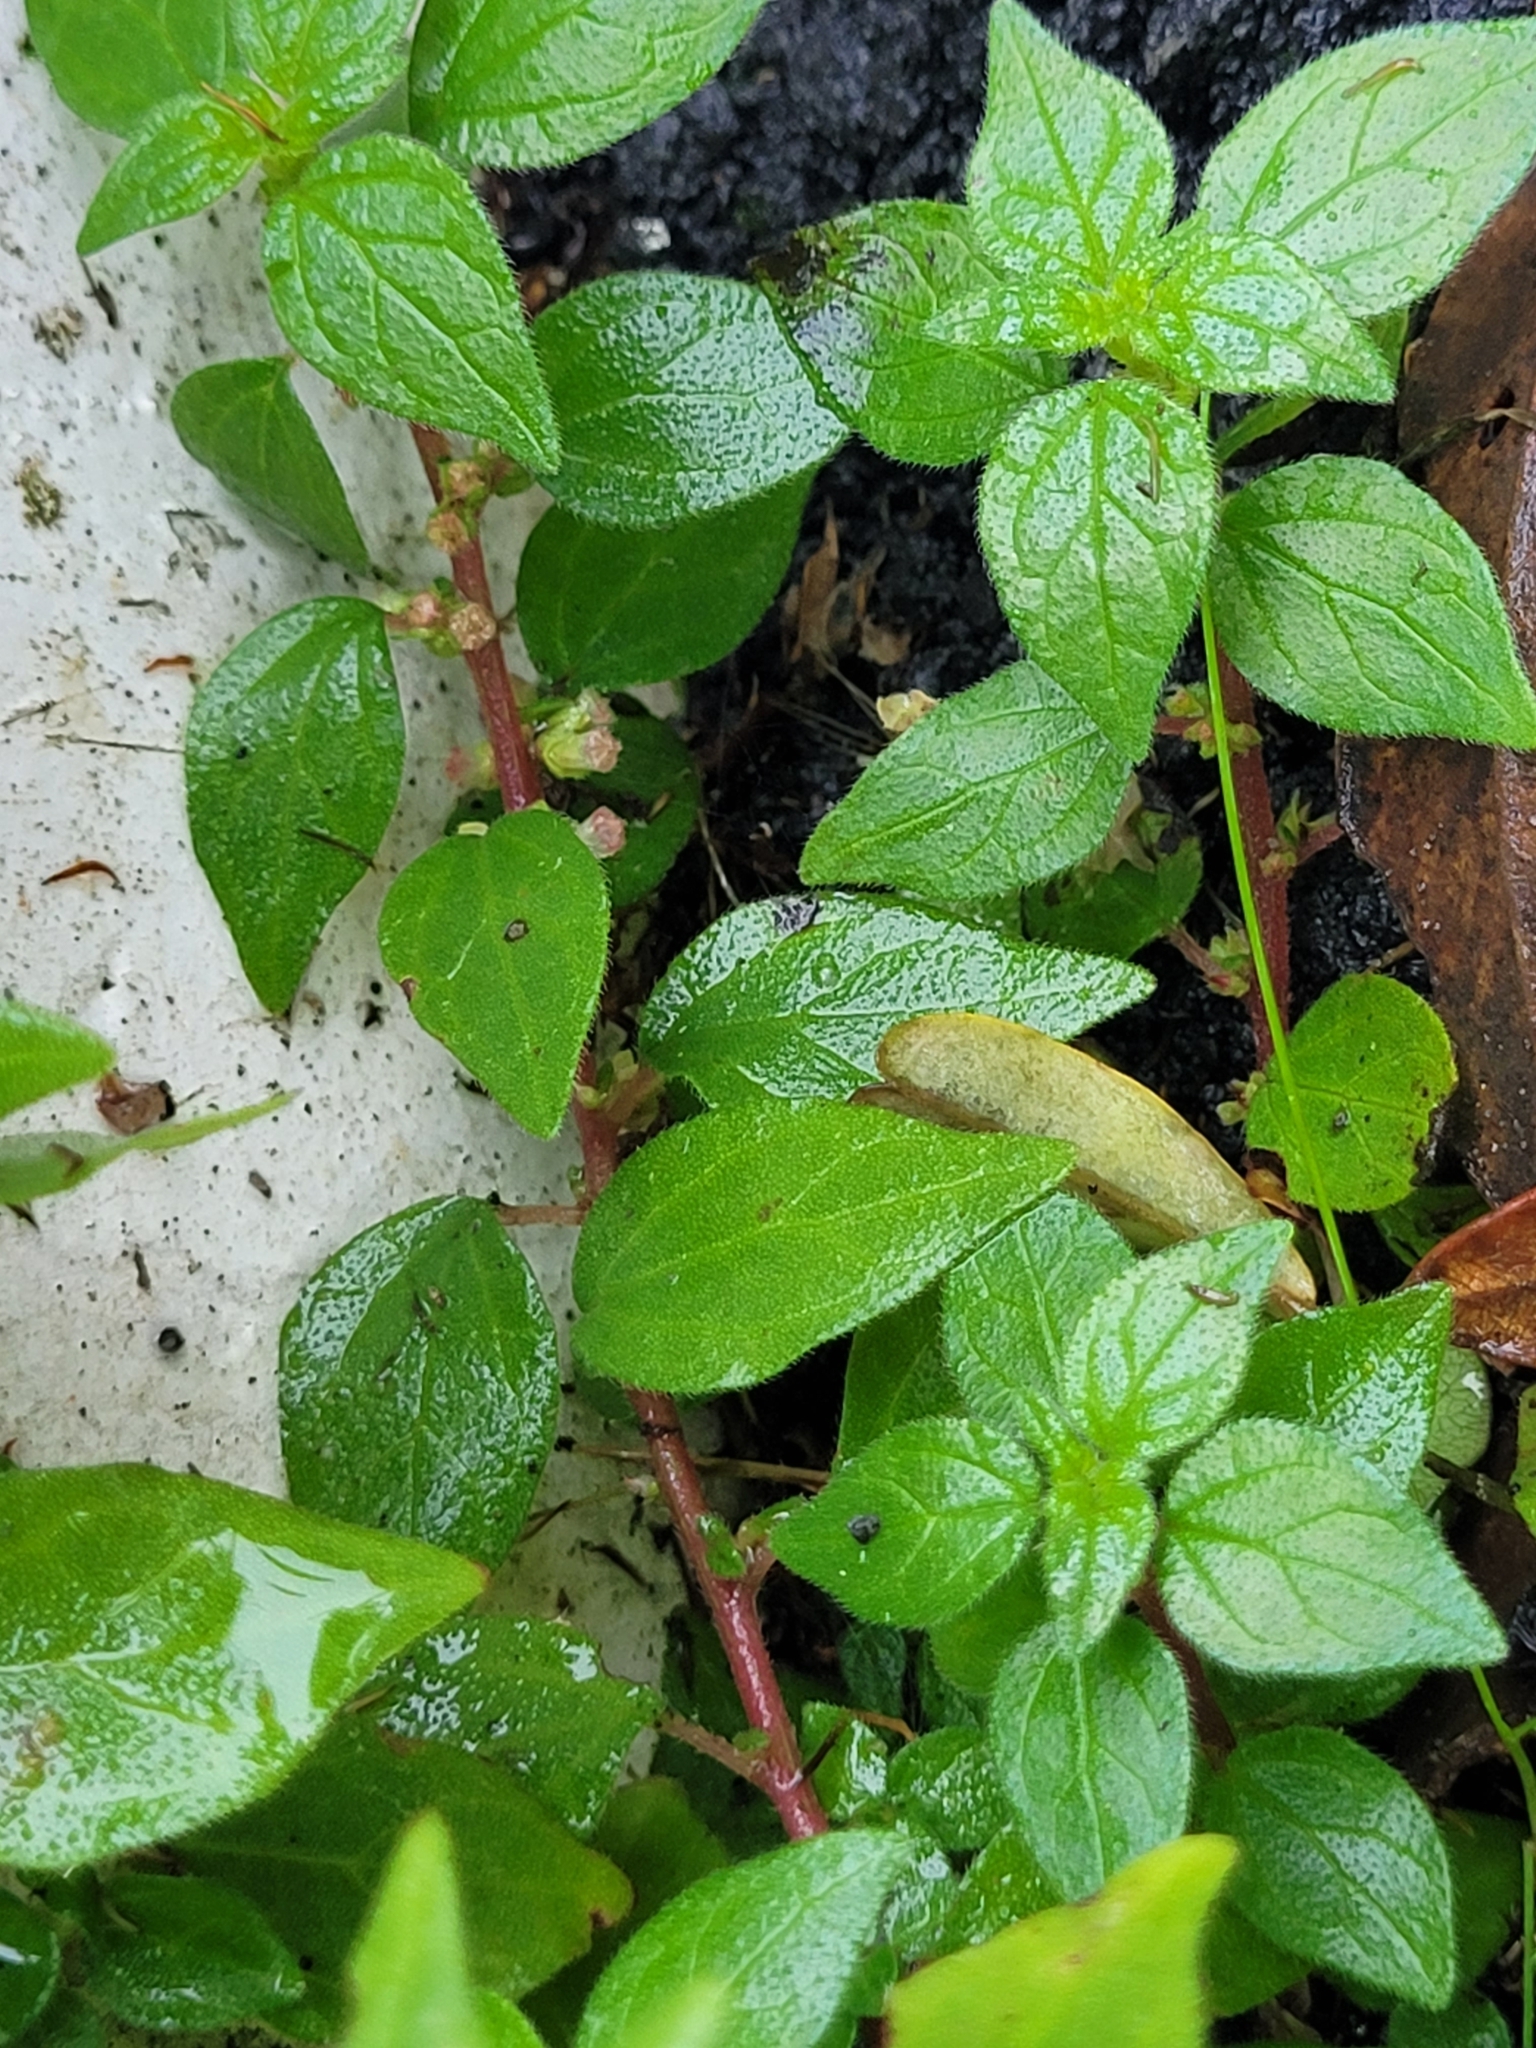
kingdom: Plantae
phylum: Tracheophyta
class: Magnoliopsida
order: Rosales
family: Urticaceae
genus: Parietaria
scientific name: Parietaria judaica
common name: Pellitory-of-the-wall
